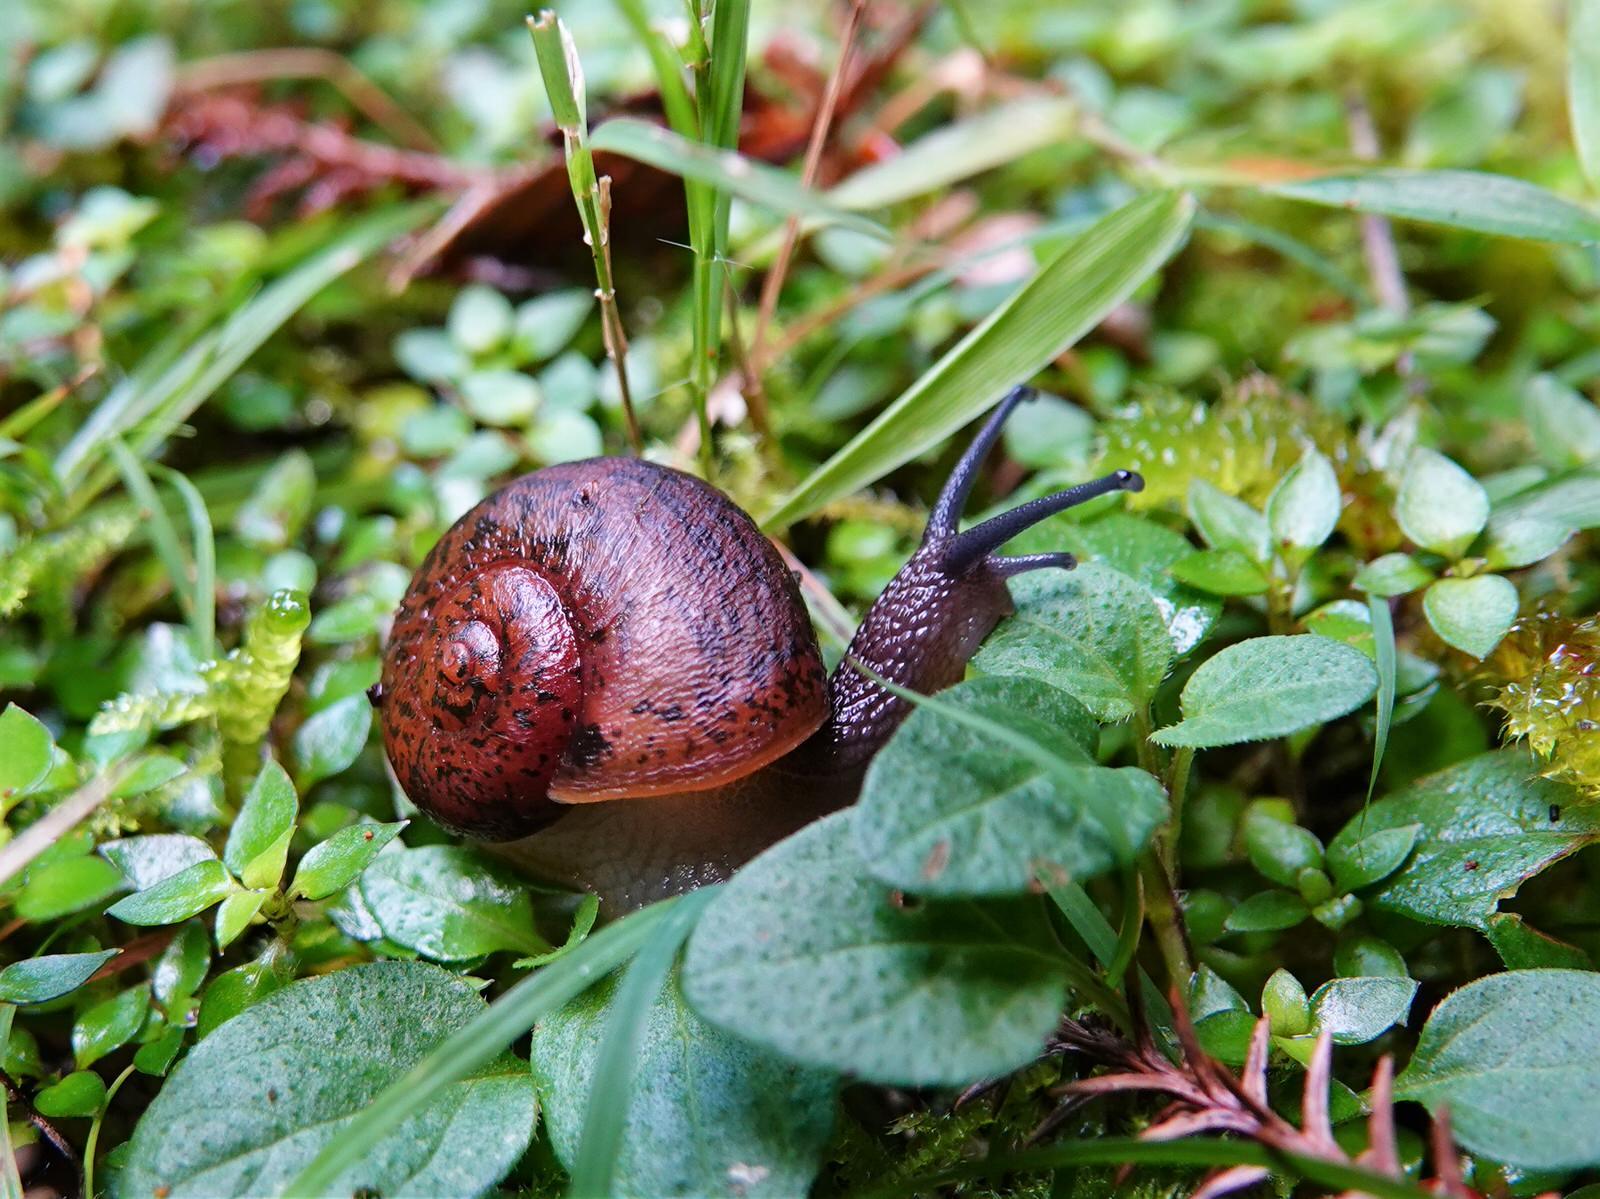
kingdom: Animalia
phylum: Mollusca
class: Gastropoda
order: Stylommatophora
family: Rhytididae
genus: Rhytida
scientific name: Rhytida greenwoodi
